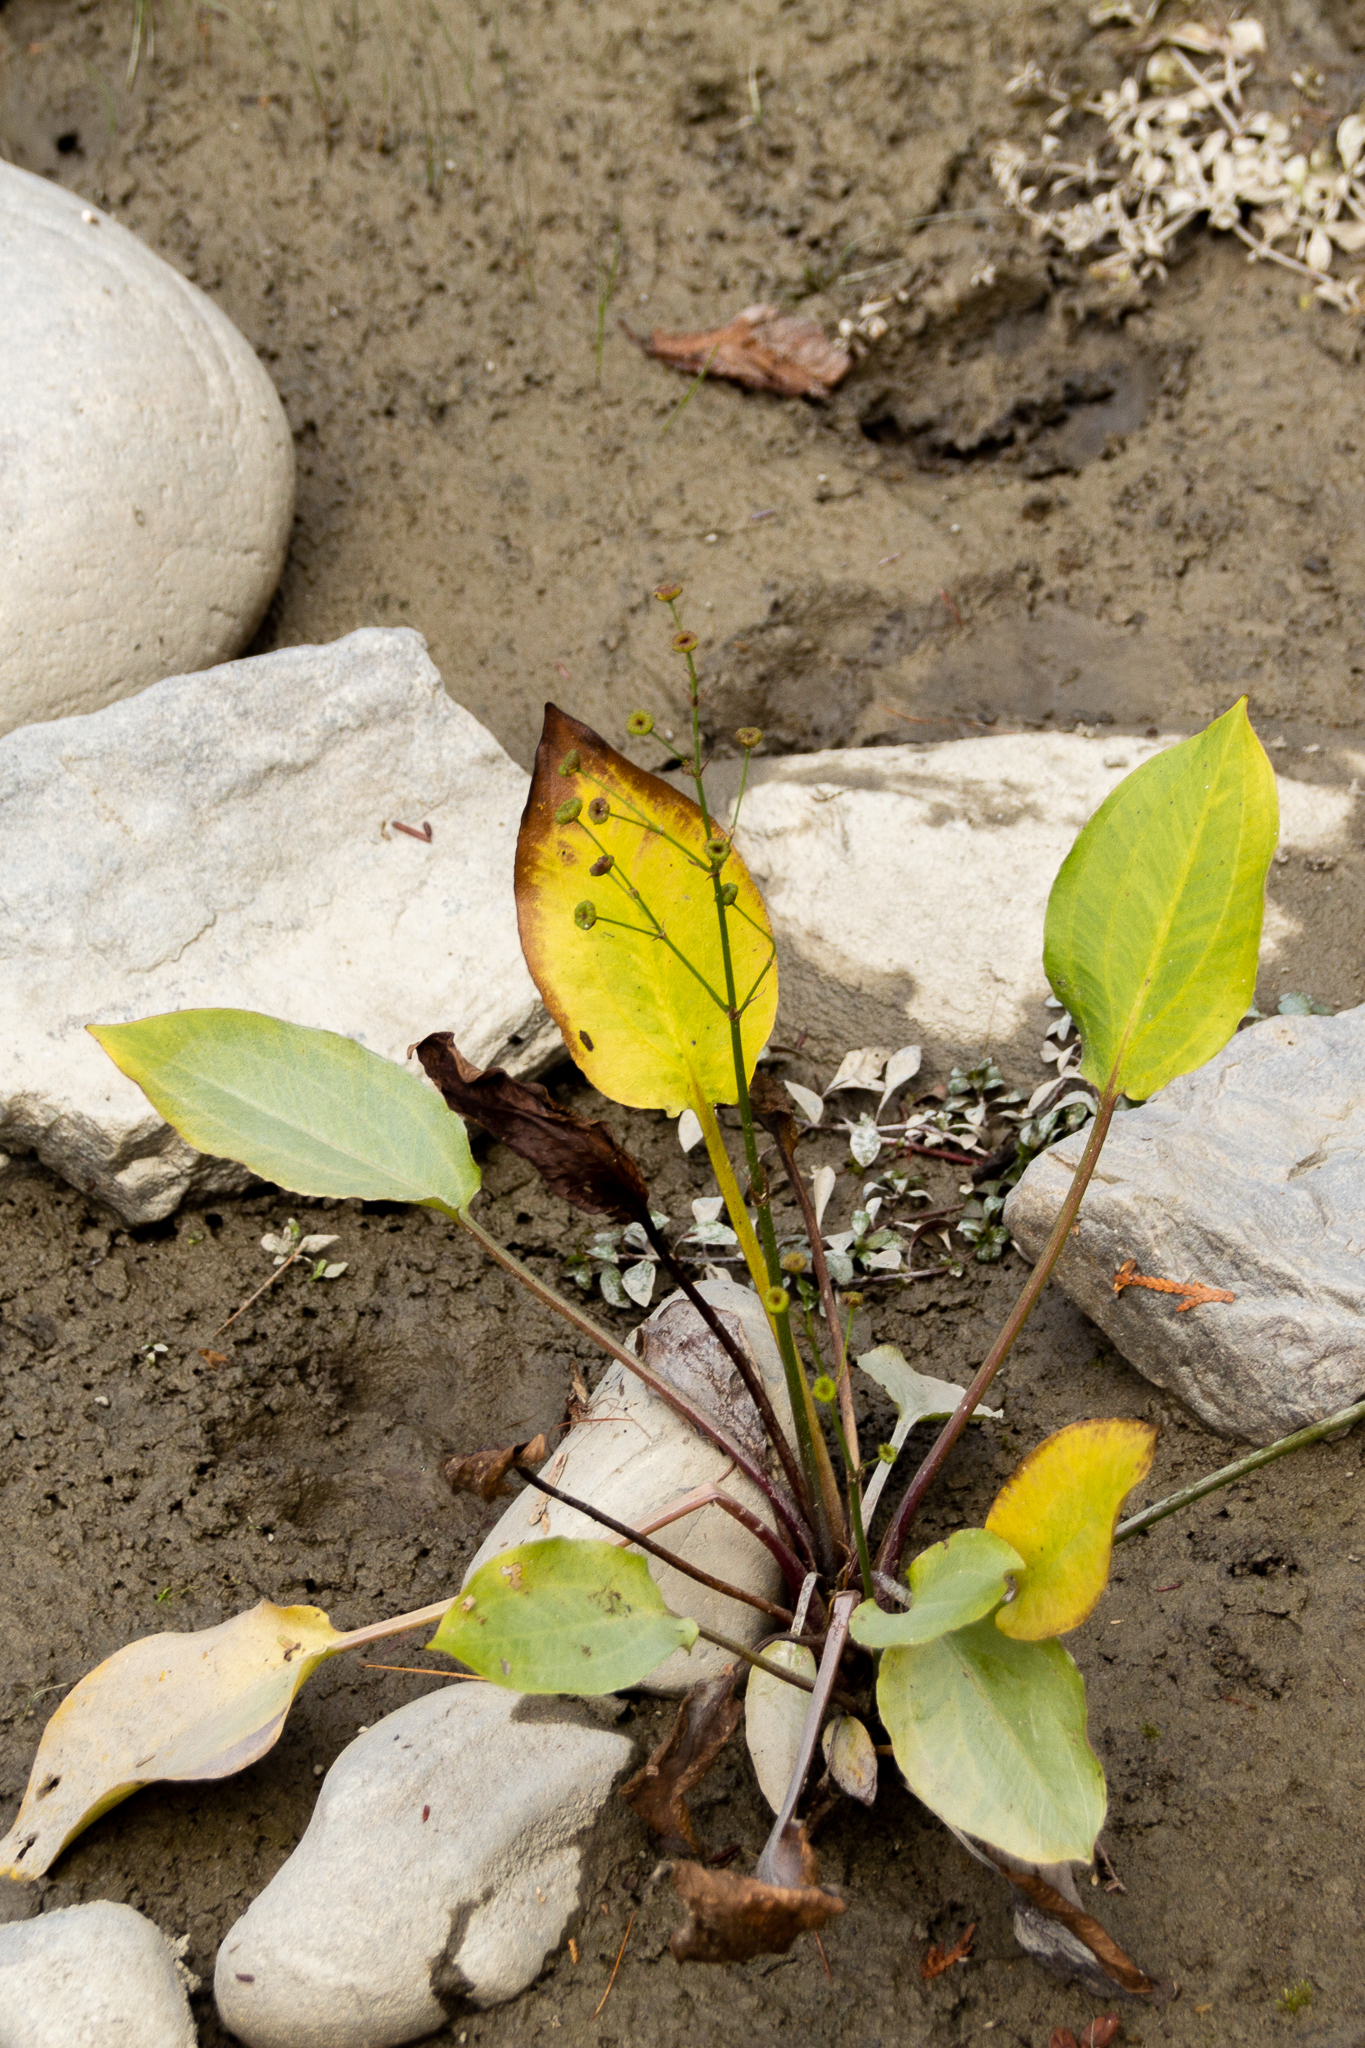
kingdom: Plantae
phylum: Tracheophyta
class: Liliopsida
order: Alismatales
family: Alismataceae
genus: Alisma
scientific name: Alisma triviale
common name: Northern water-plantain
